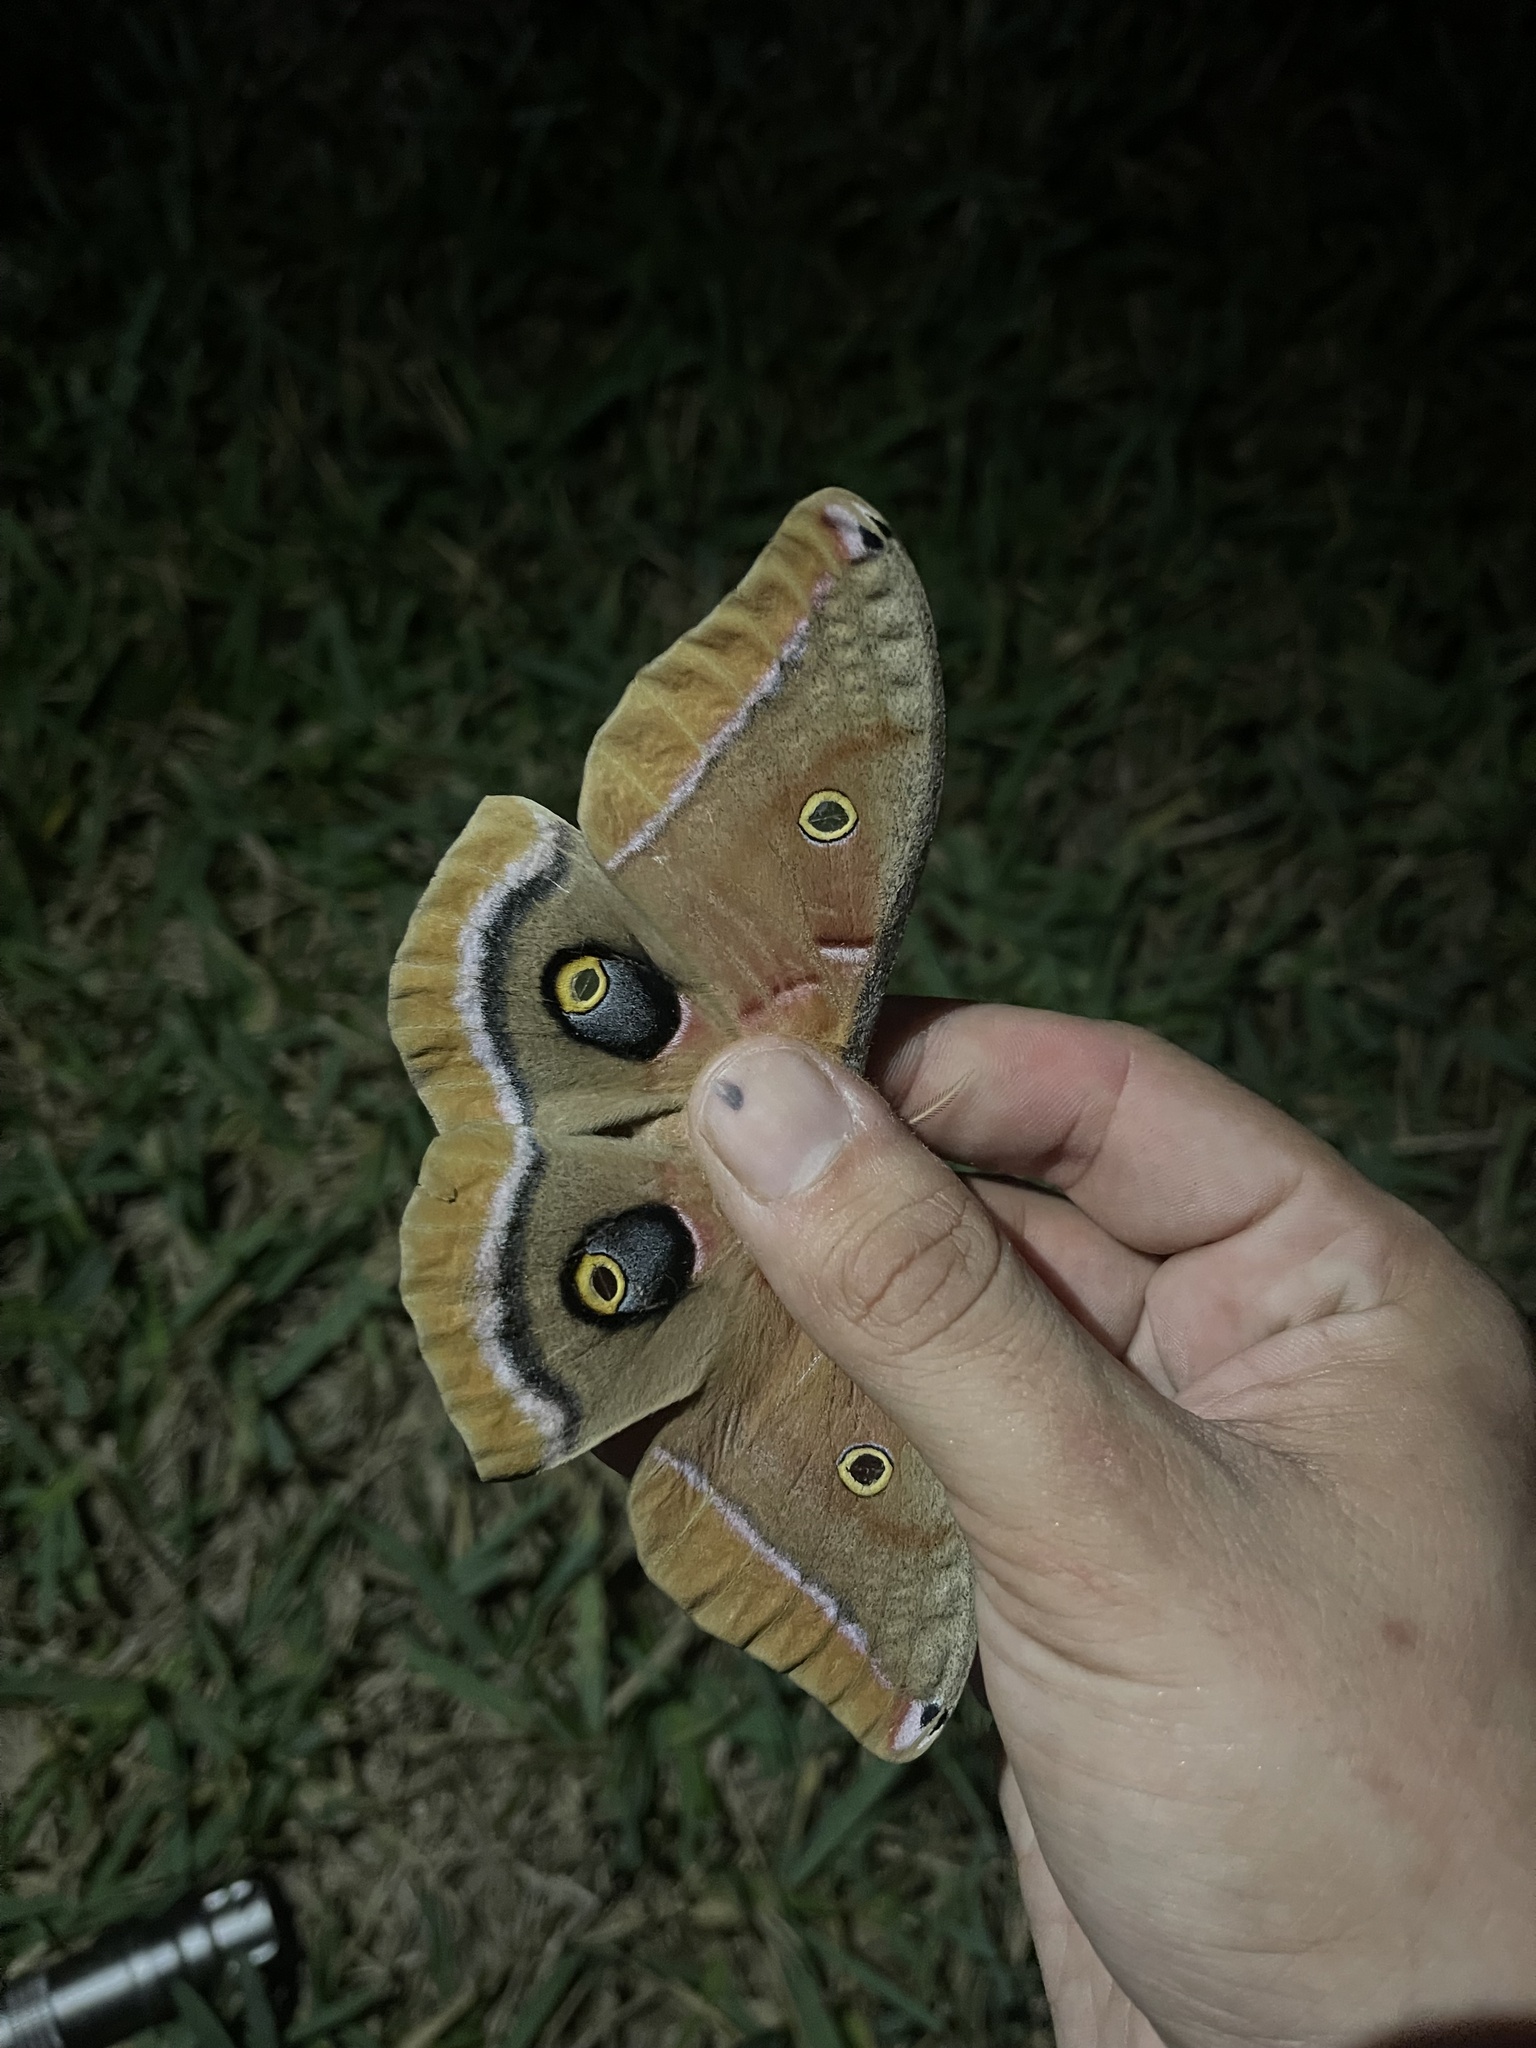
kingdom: Animalia
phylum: Arthropoda
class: Insecta
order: Lepidoptera
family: Saturniidae
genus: Antheraea
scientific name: Antheraea polyphemus
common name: Polyphemus moth
